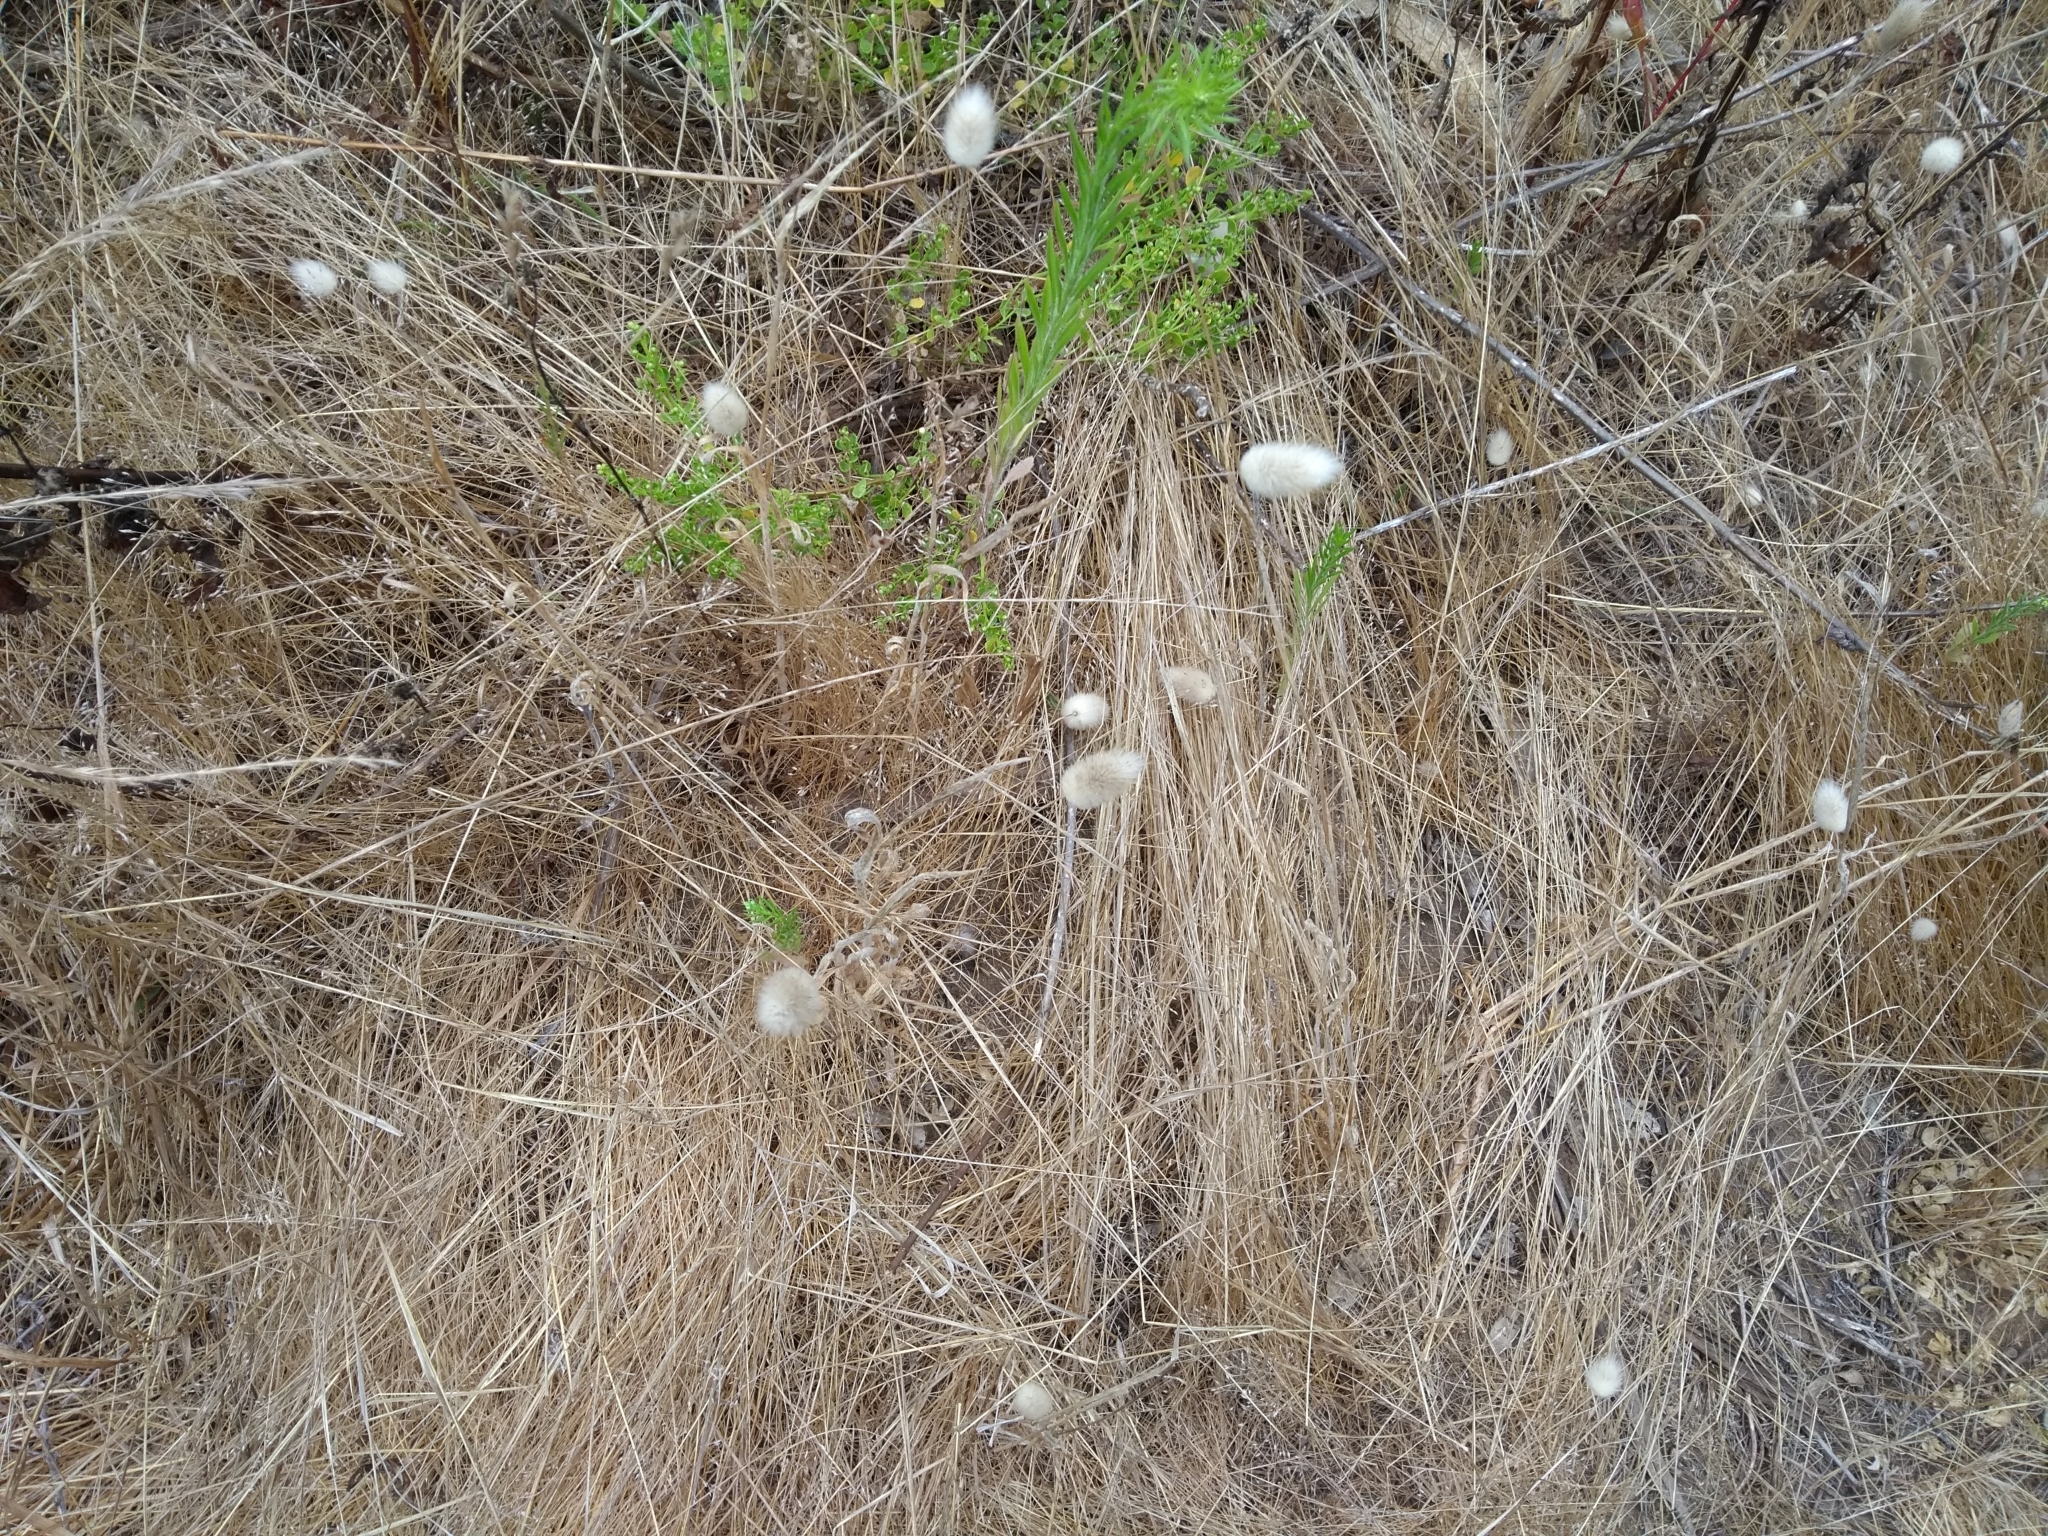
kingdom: Plantae
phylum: Tracheophyta
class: Liliopsida
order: Poales
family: Poaceae
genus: Lagurus
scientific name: Lagurus ovatus
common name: Hare's-tail
